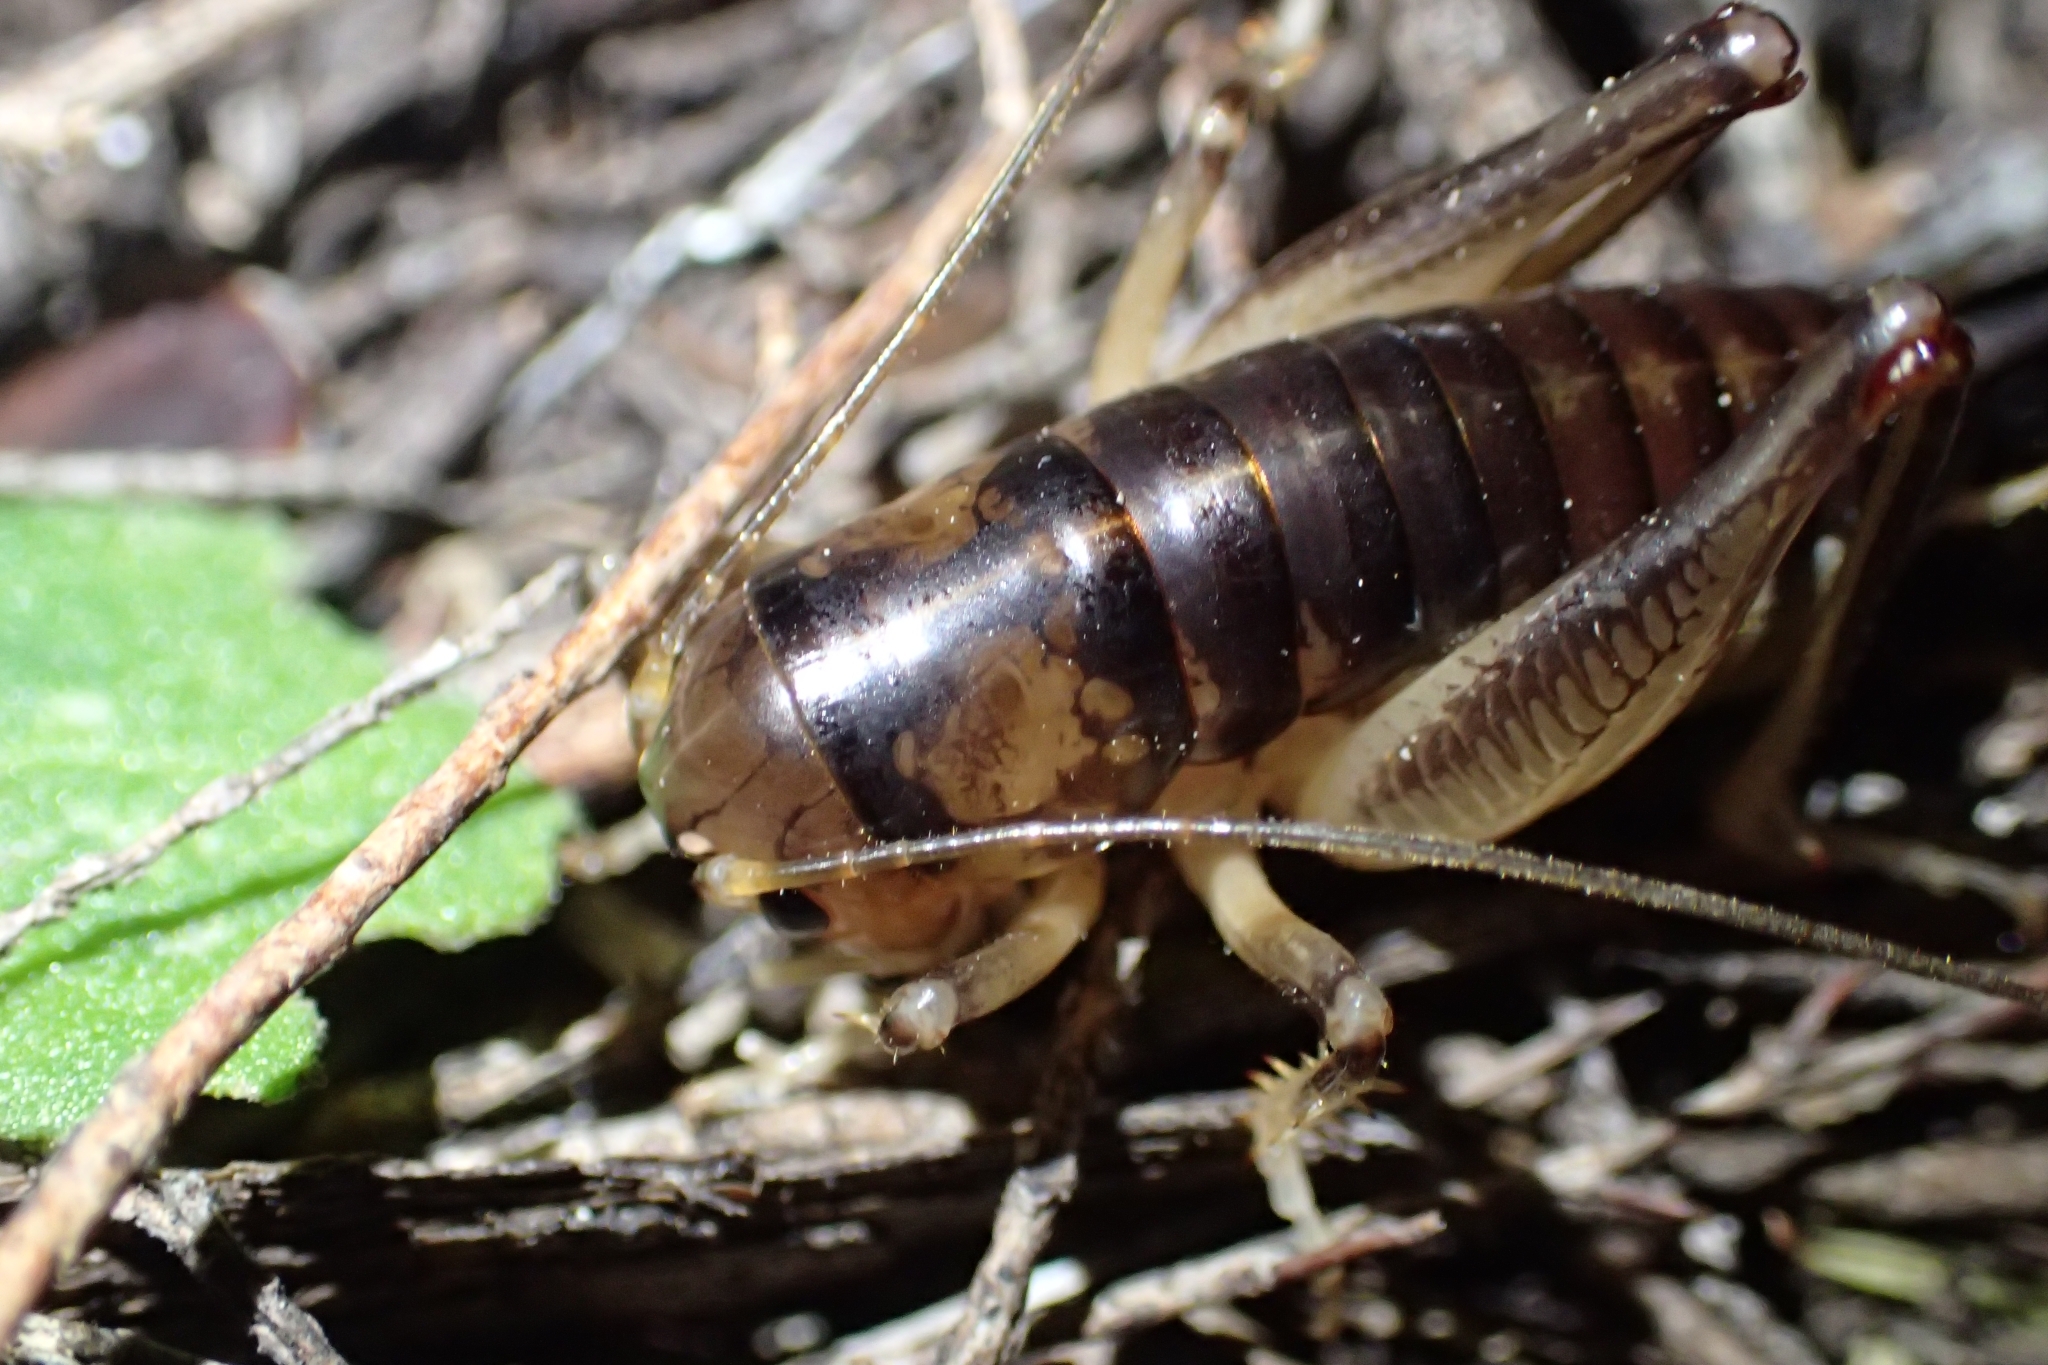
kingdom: Animalia
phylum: Arthropoda
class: Insecta
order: Orthoptera
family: Anostostomatidae
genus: Hemiandrus
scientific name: Hemiandrus pallitarsis
